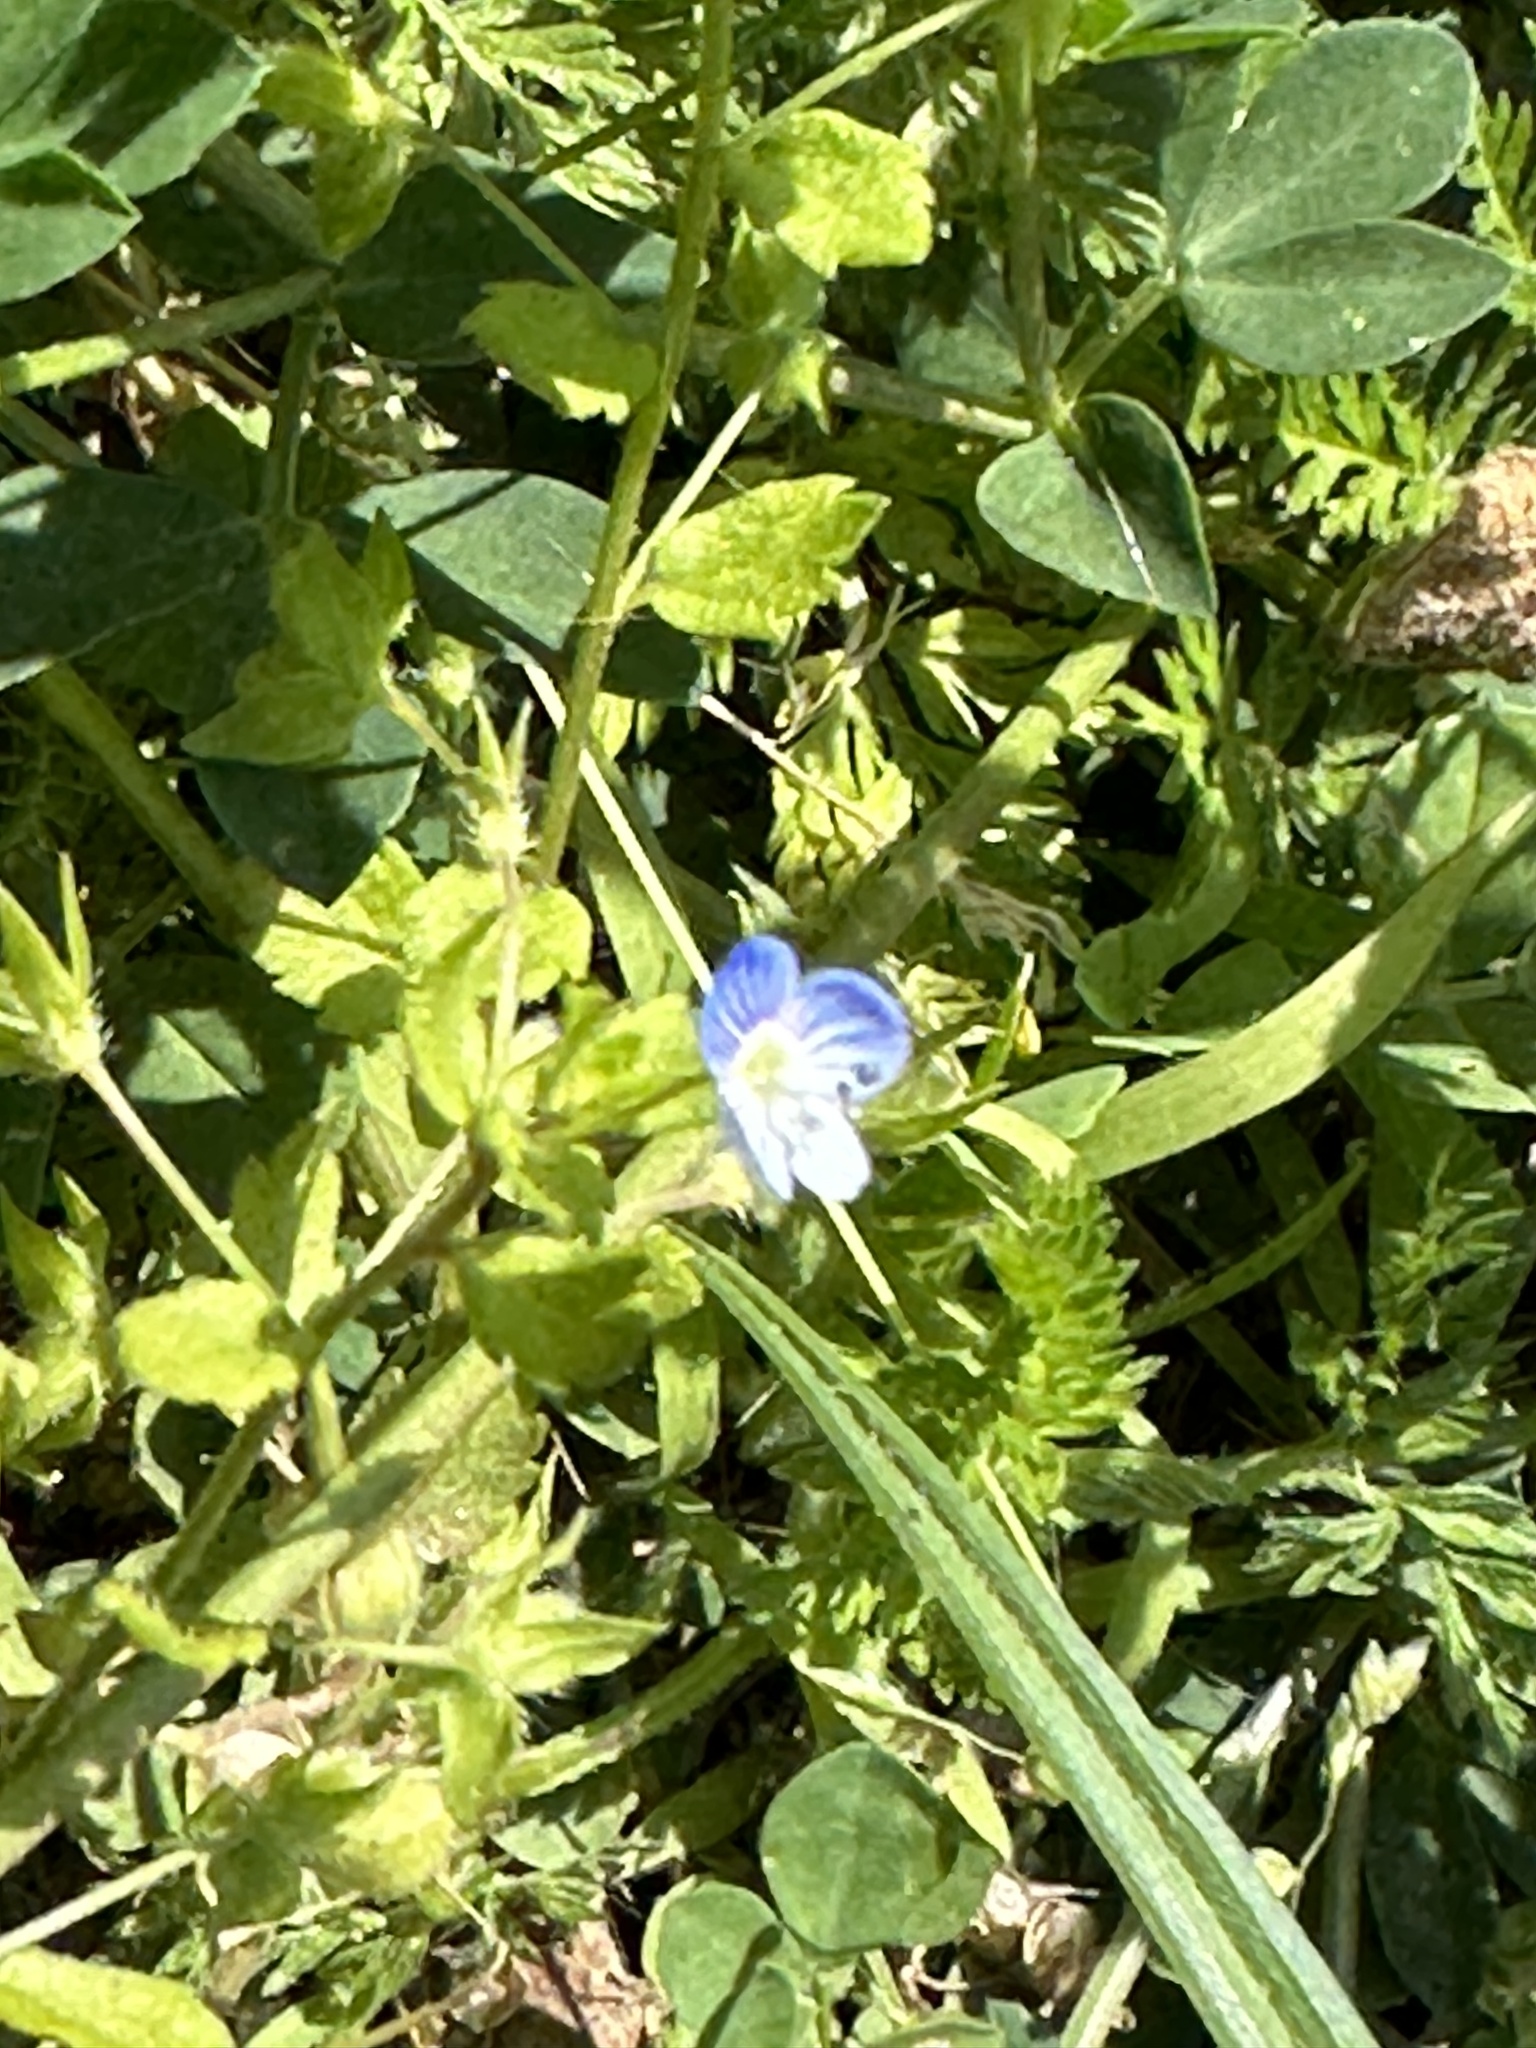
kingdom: Plantae
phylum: Tracheophyta
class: Magnoliopsida
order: Lamiales
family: Plantaginaceae
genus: Veronica
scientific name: Veronica persica
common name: Common field-speedwell
